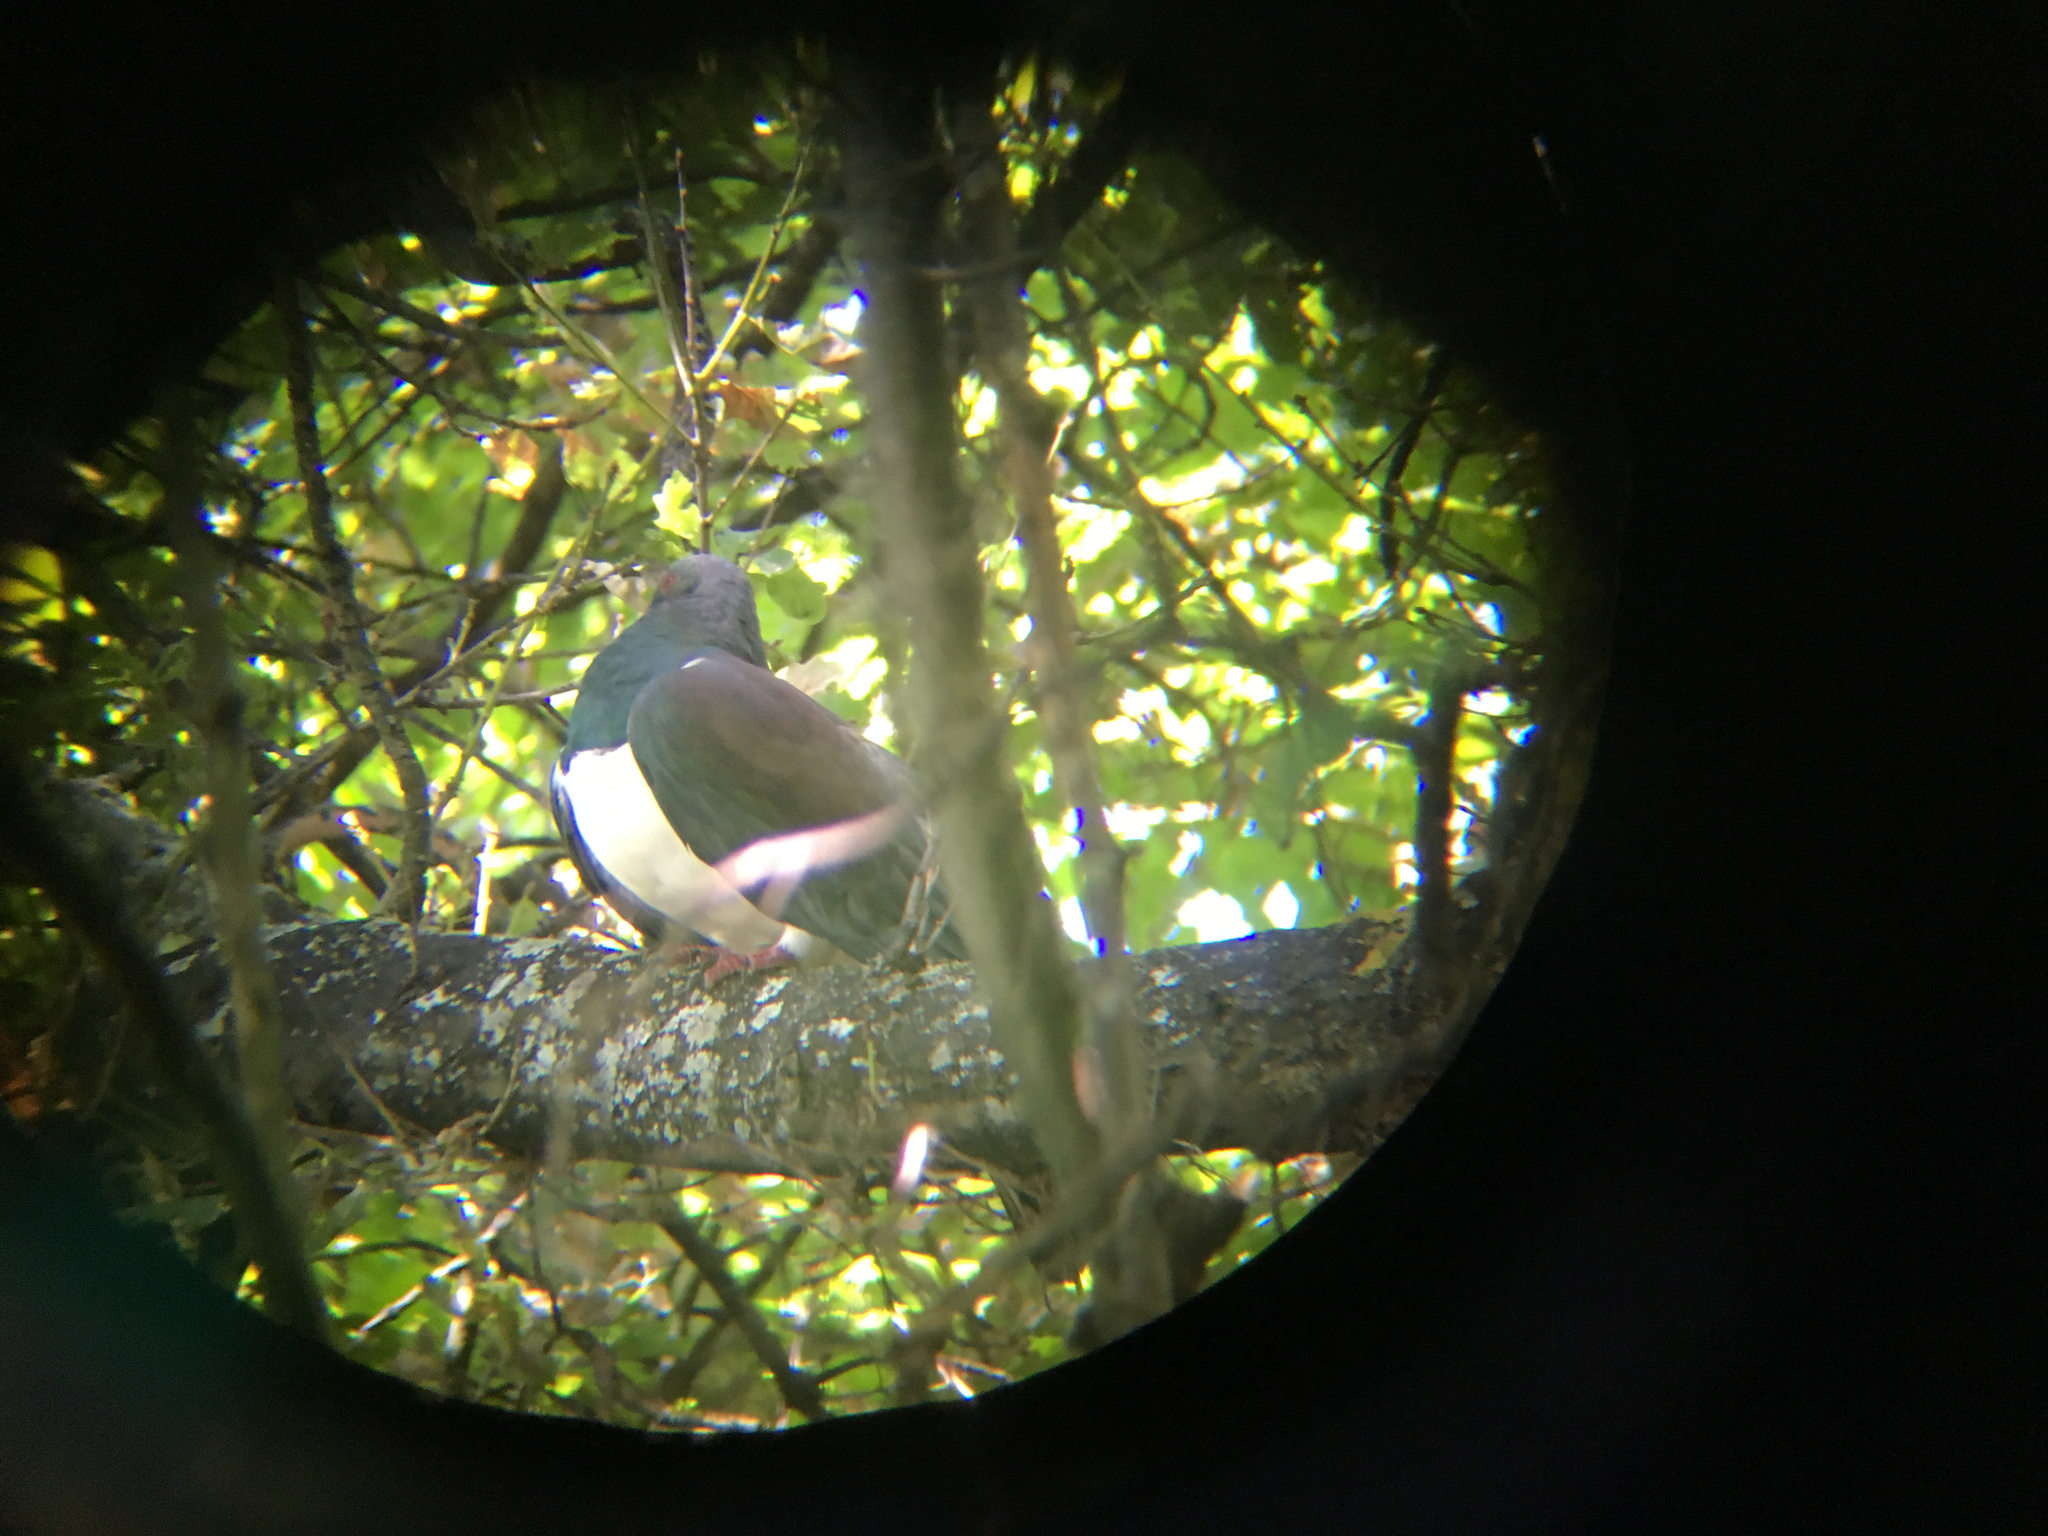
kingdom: Animalia
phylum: Chordata
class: Aves
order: Columbiformes
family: Columbidae
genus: Hemiphaga
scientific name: Hemiphaga novaeseelandiae
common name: New zealand pigeon
